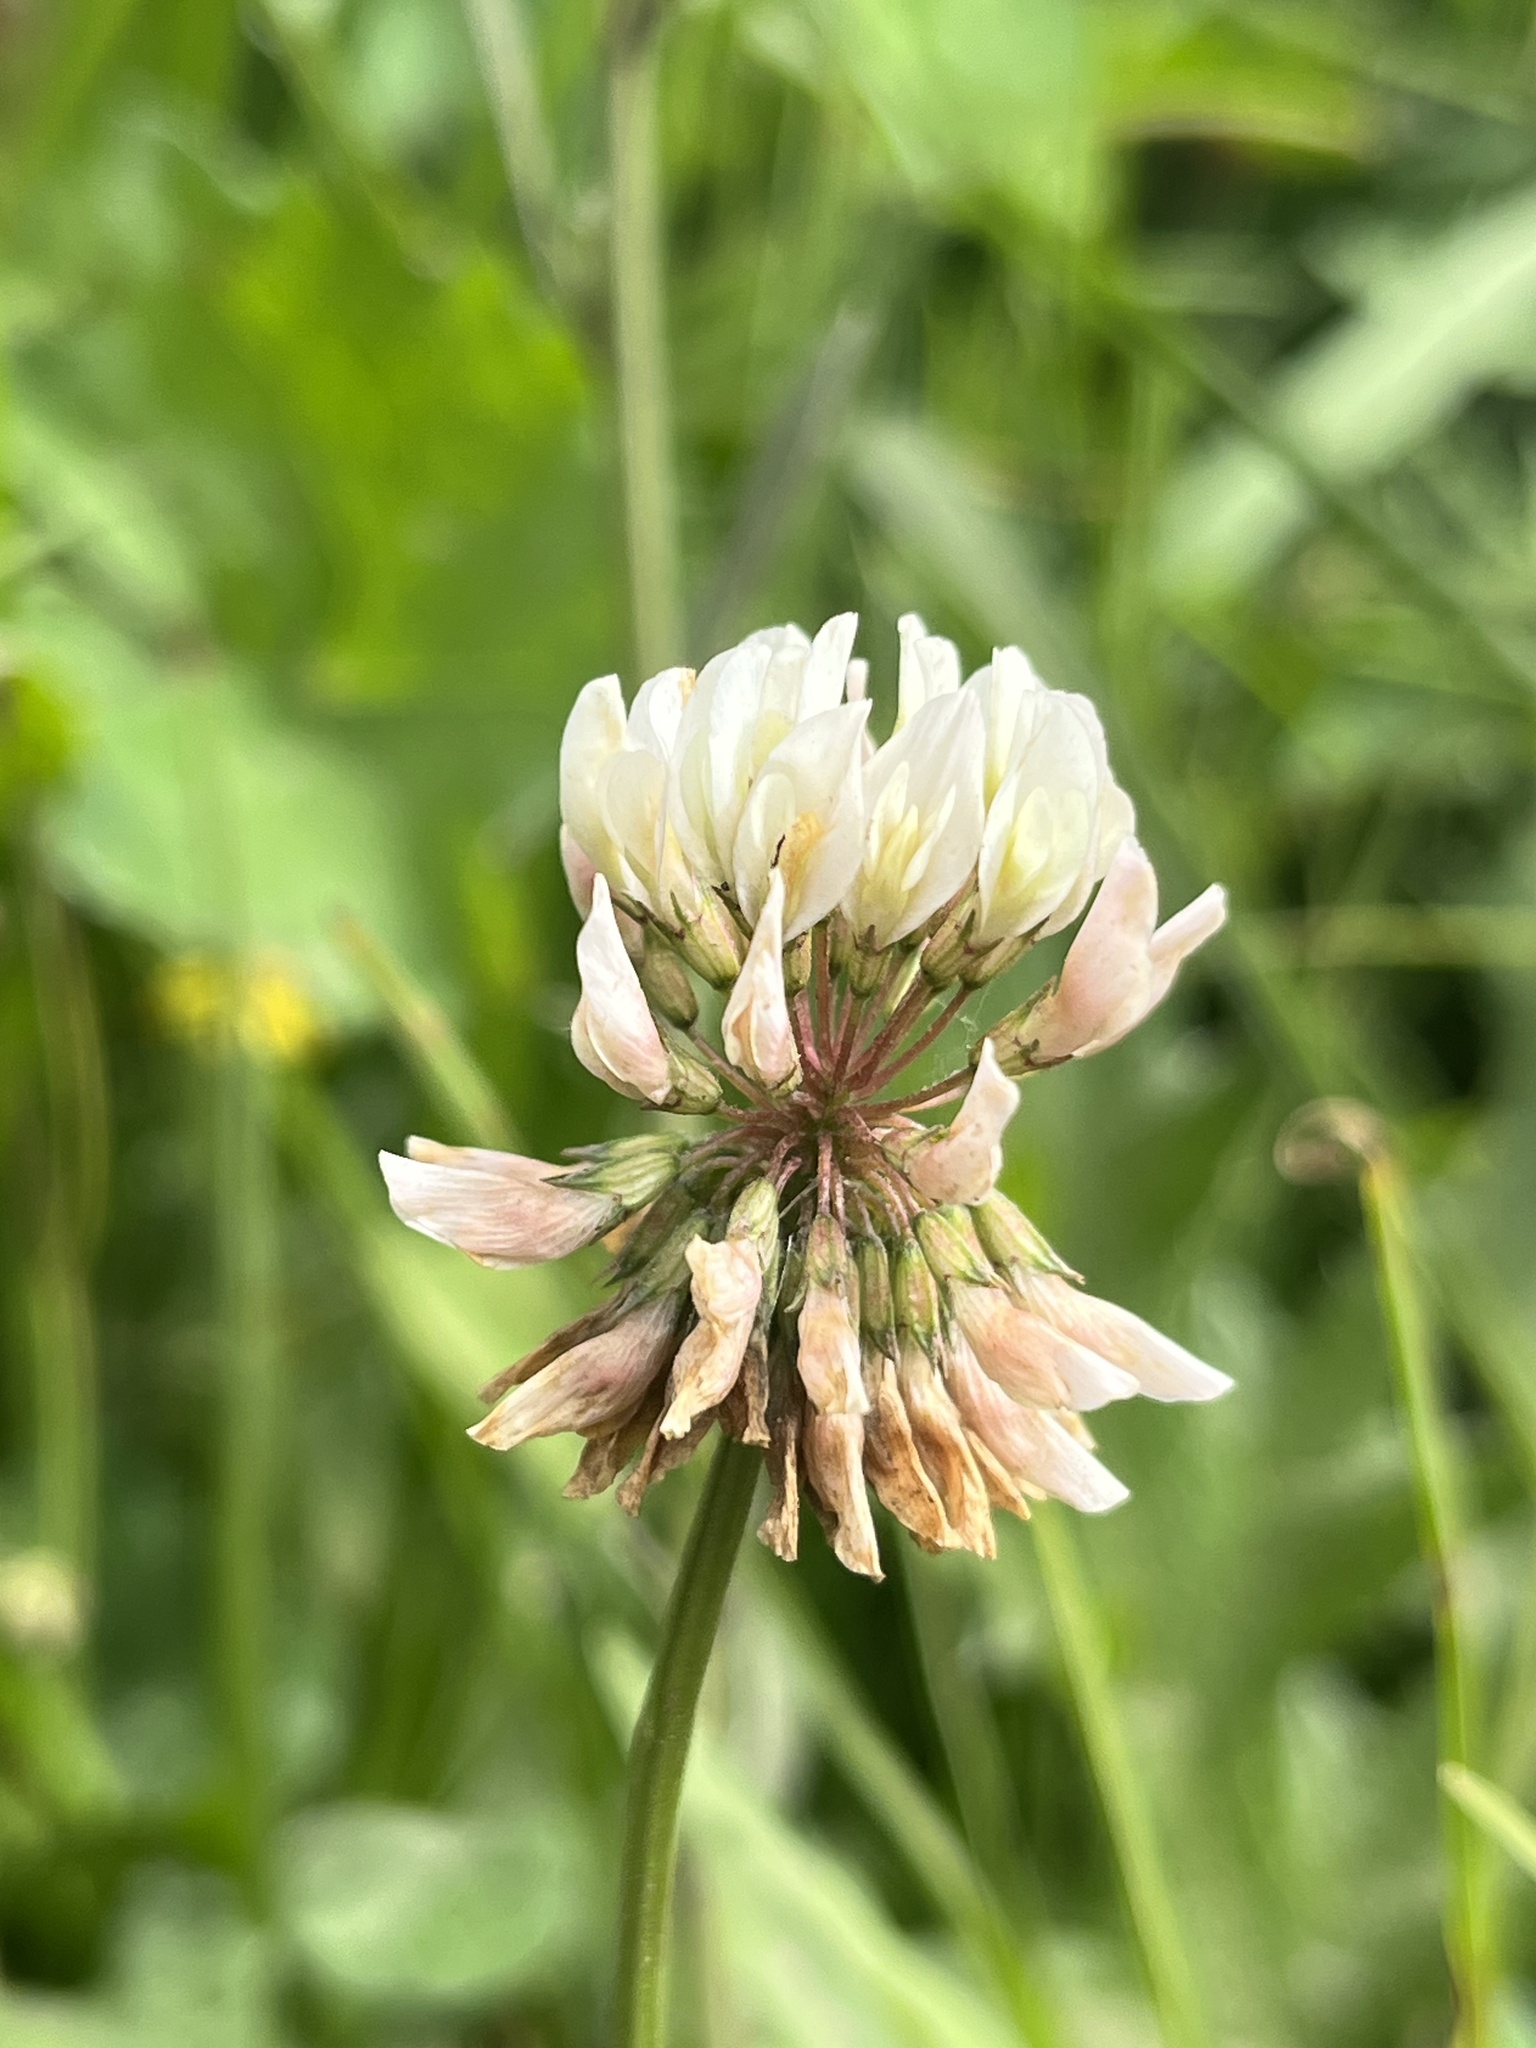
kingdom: Plantae
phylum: Tracheophyta
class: Magnoliopsida
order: Fabales
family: Fabaceae
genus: Trifolium
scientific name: Trifolium repens
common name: White clover
